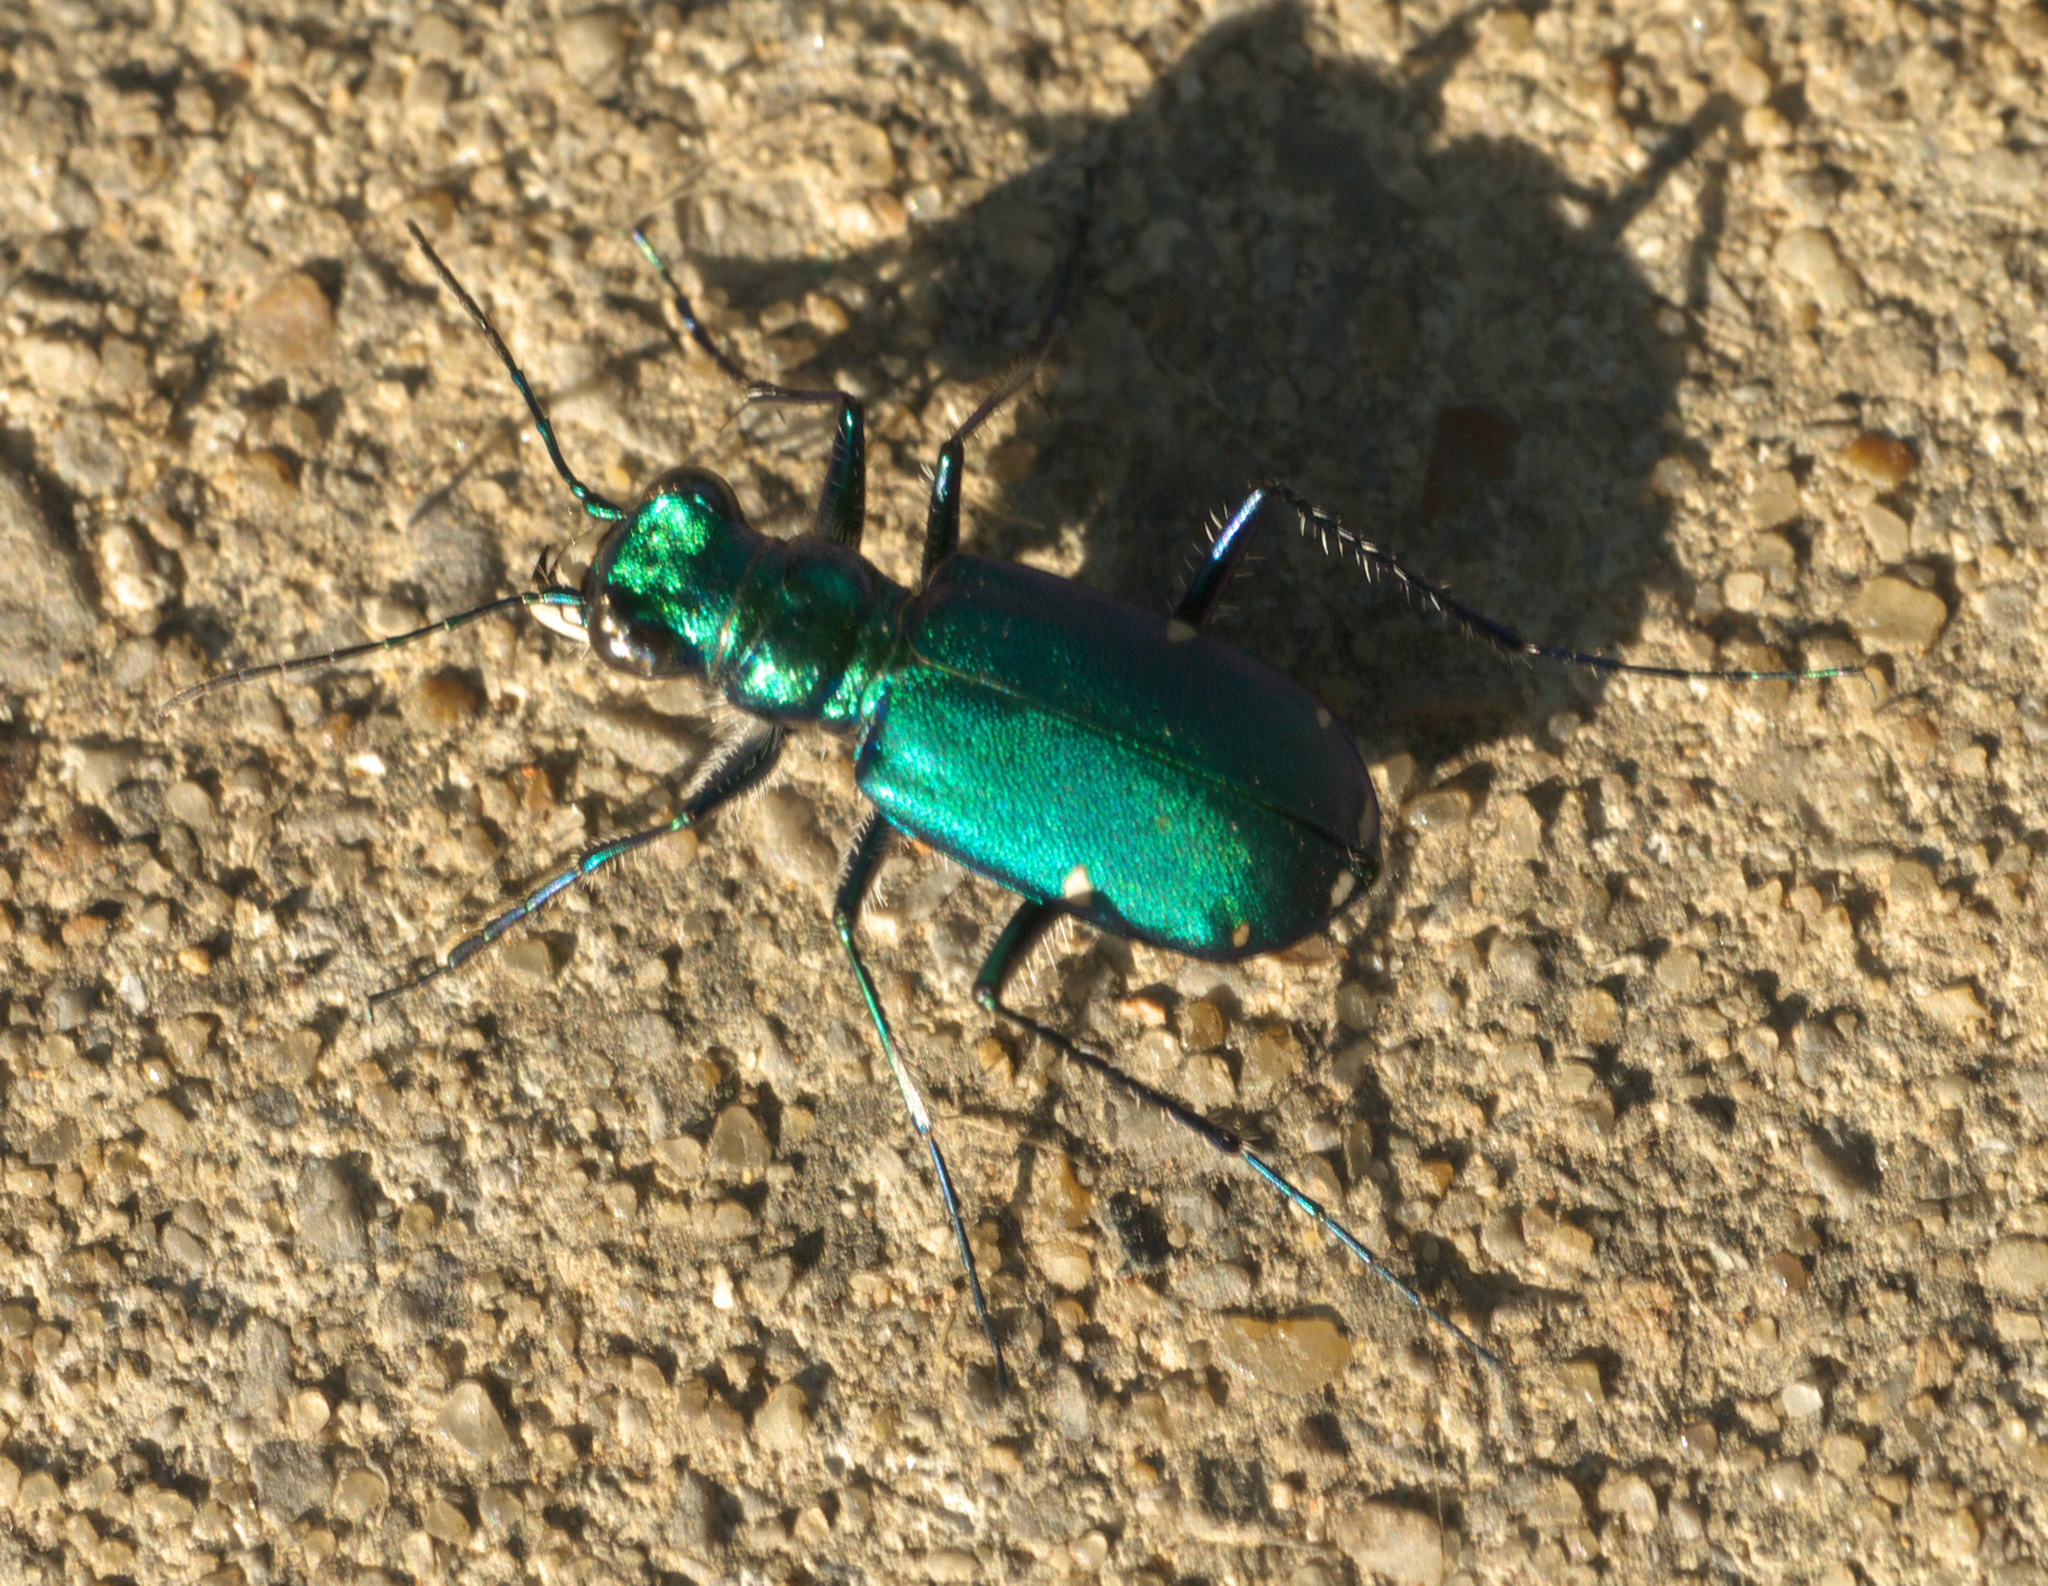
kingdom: Animalia
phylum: Arthropoda
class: Insecta
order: Coleoptera
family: Carabidae
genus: Cicindela
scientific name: Cicindela sexguttata
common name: Six-spotted tiger beetle
